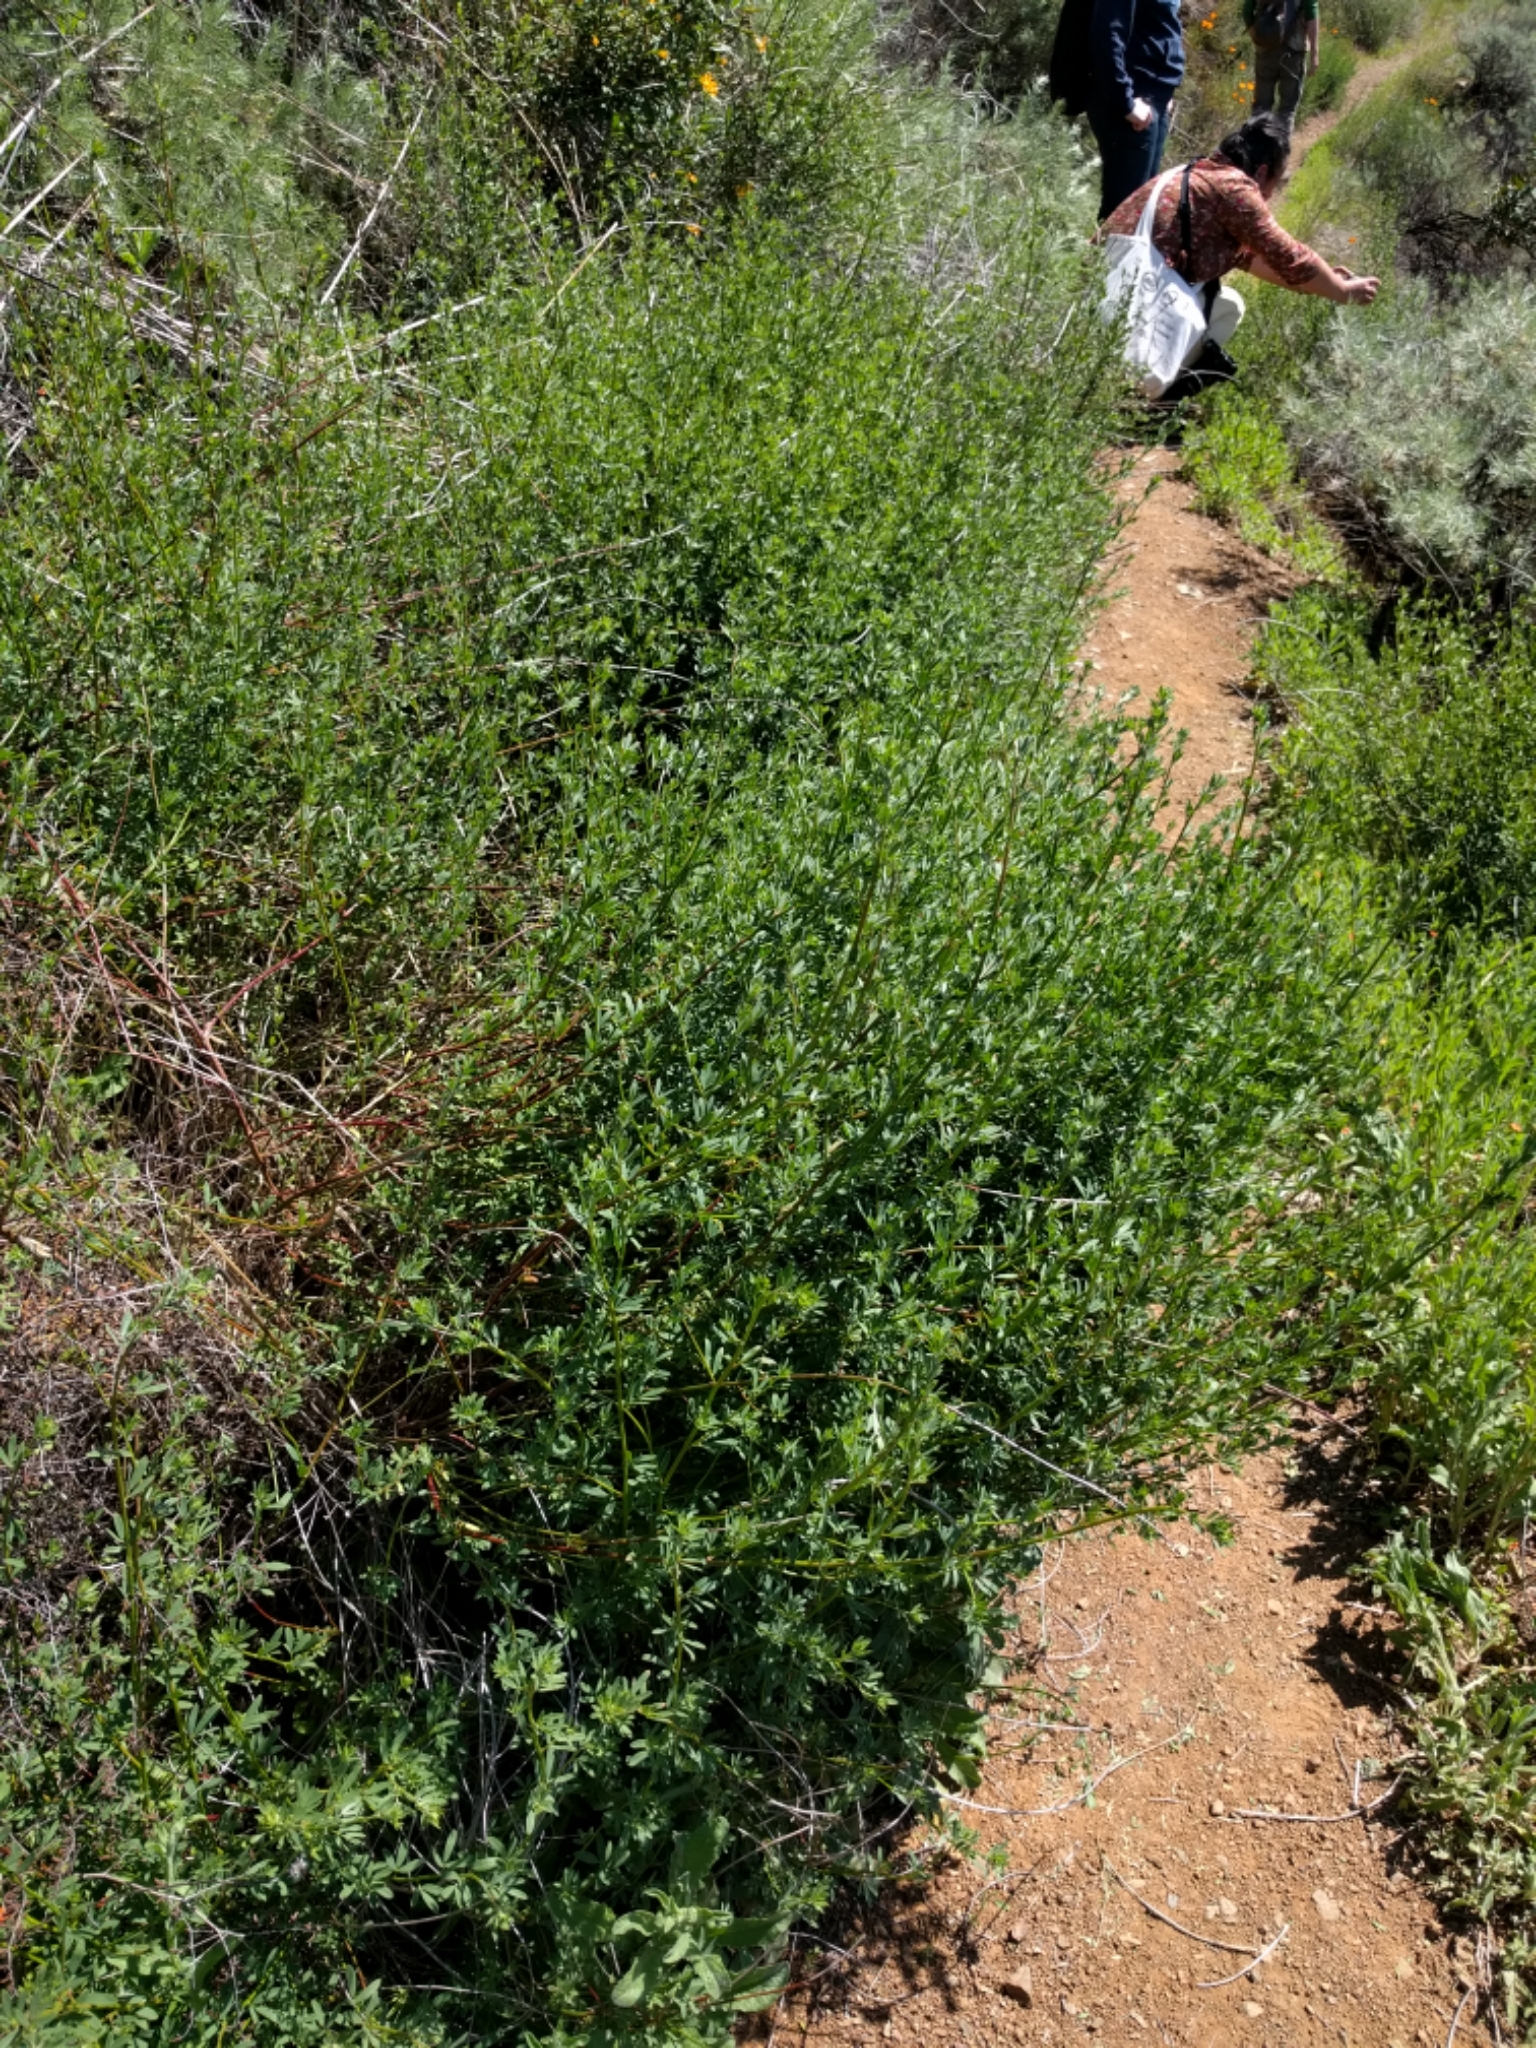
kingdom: Plantae
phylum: Tracheophyta
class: Magnoliopsida
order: Fabales
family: Fabaceae
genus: Acmispon
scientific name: Acmispon glaber
